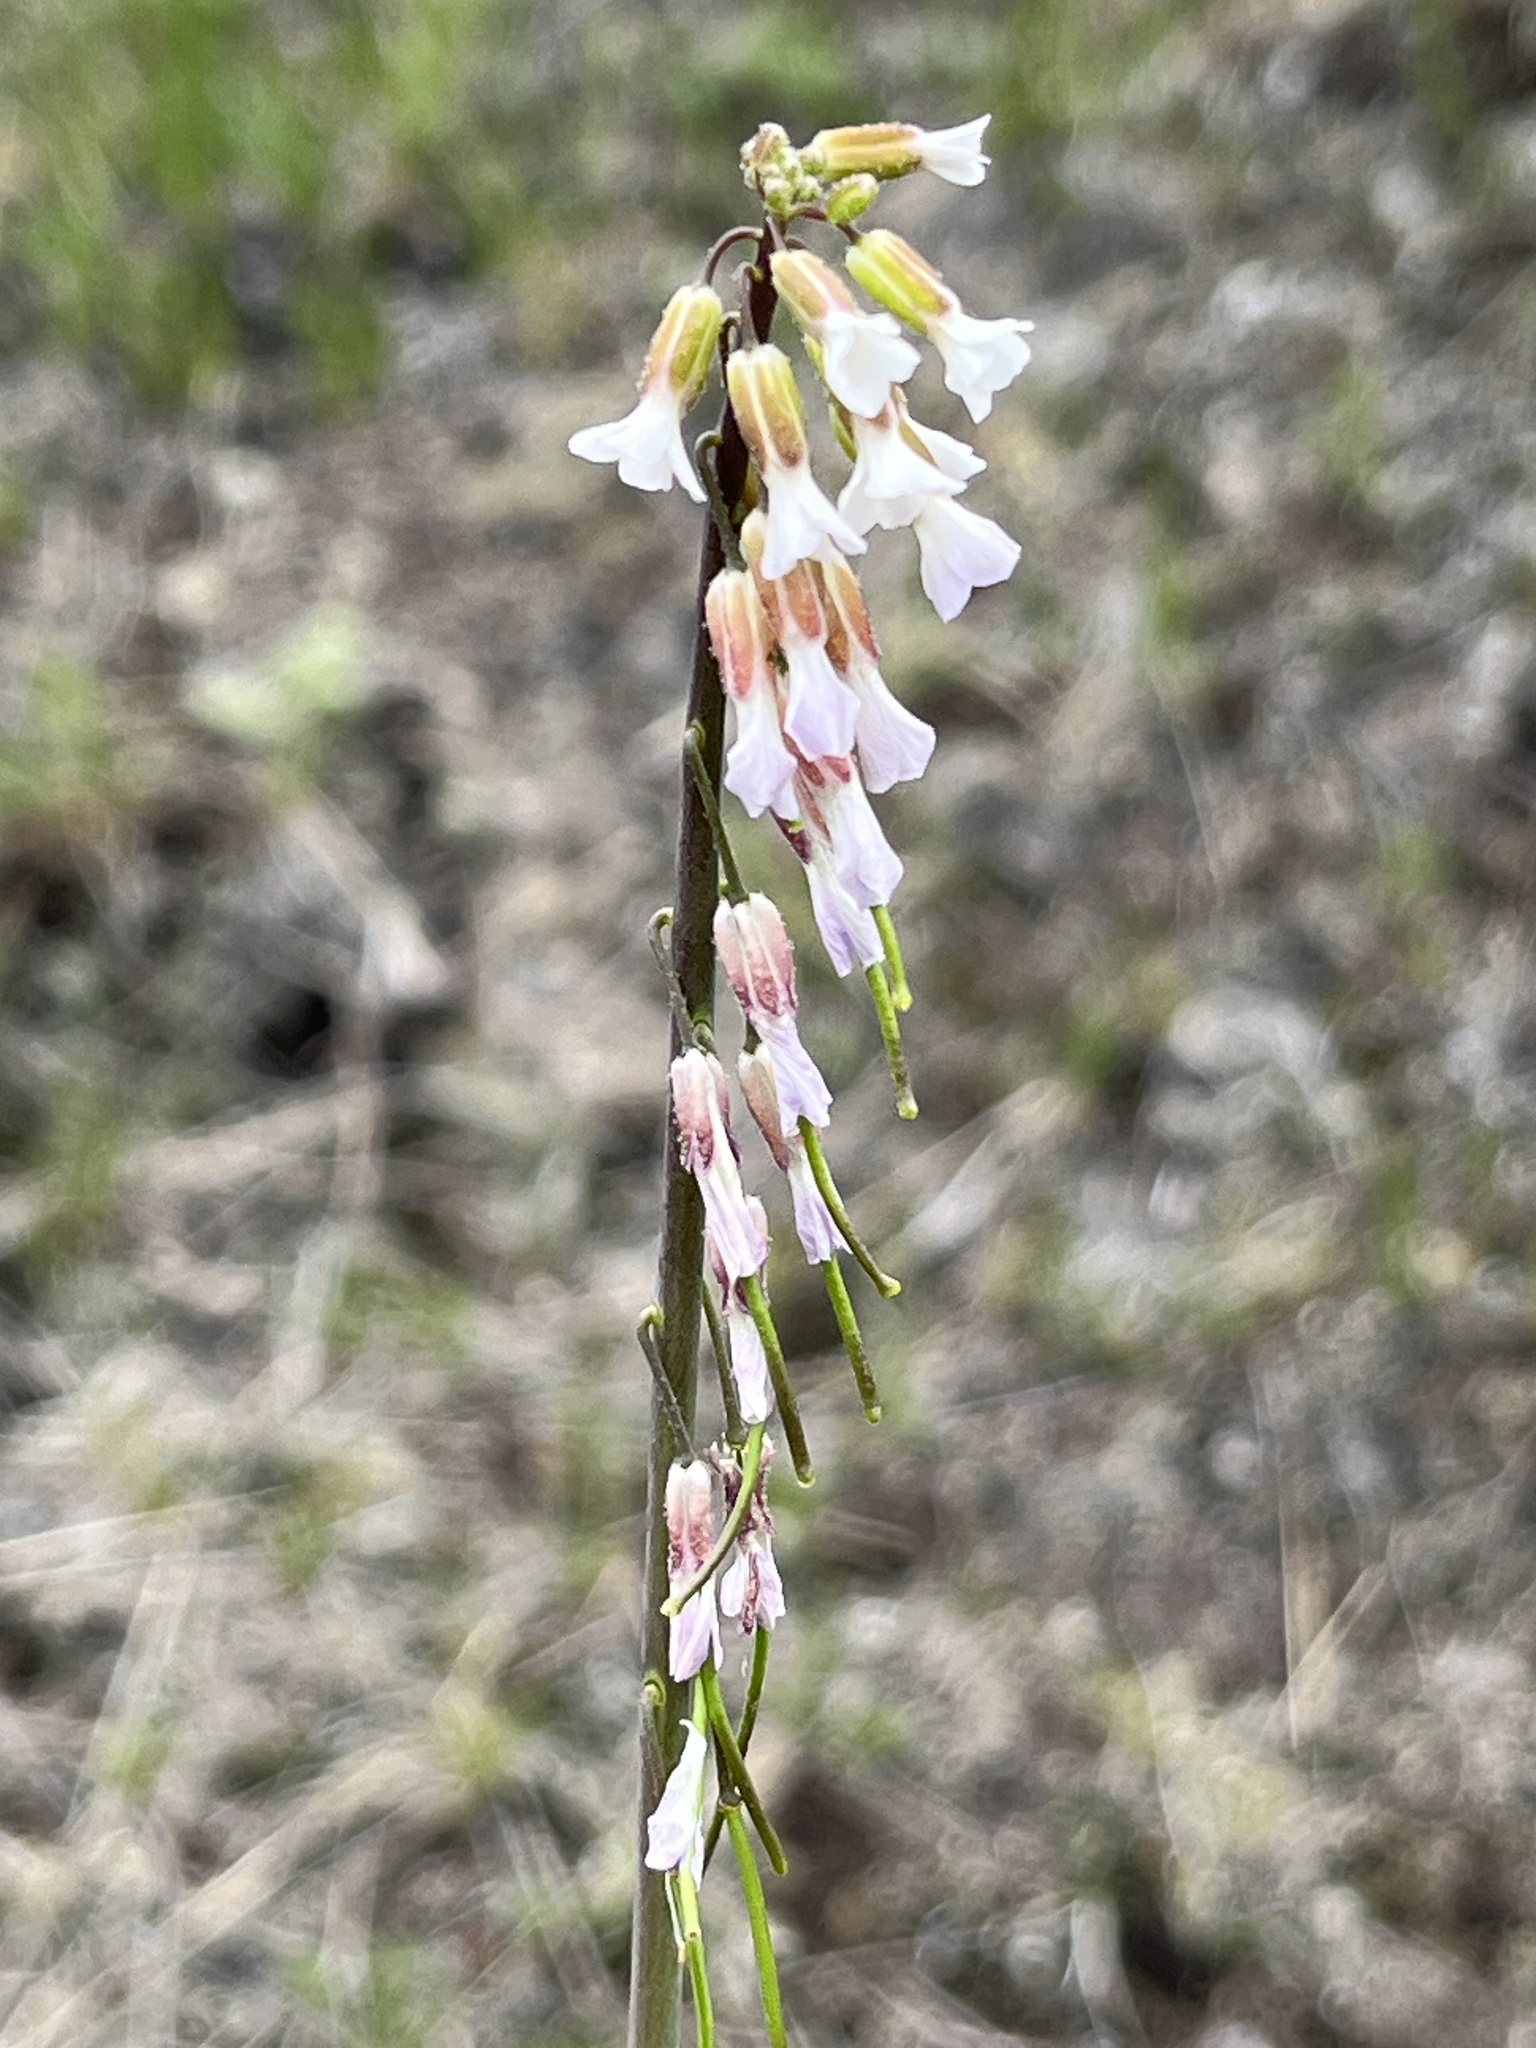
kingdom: Plantae
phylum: Tracheophyta
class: Magnoliopsida
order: Brassicales
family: Brassicaceae
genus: Boechera
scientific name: Boechera holboellii
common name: Holboell's rockcress
